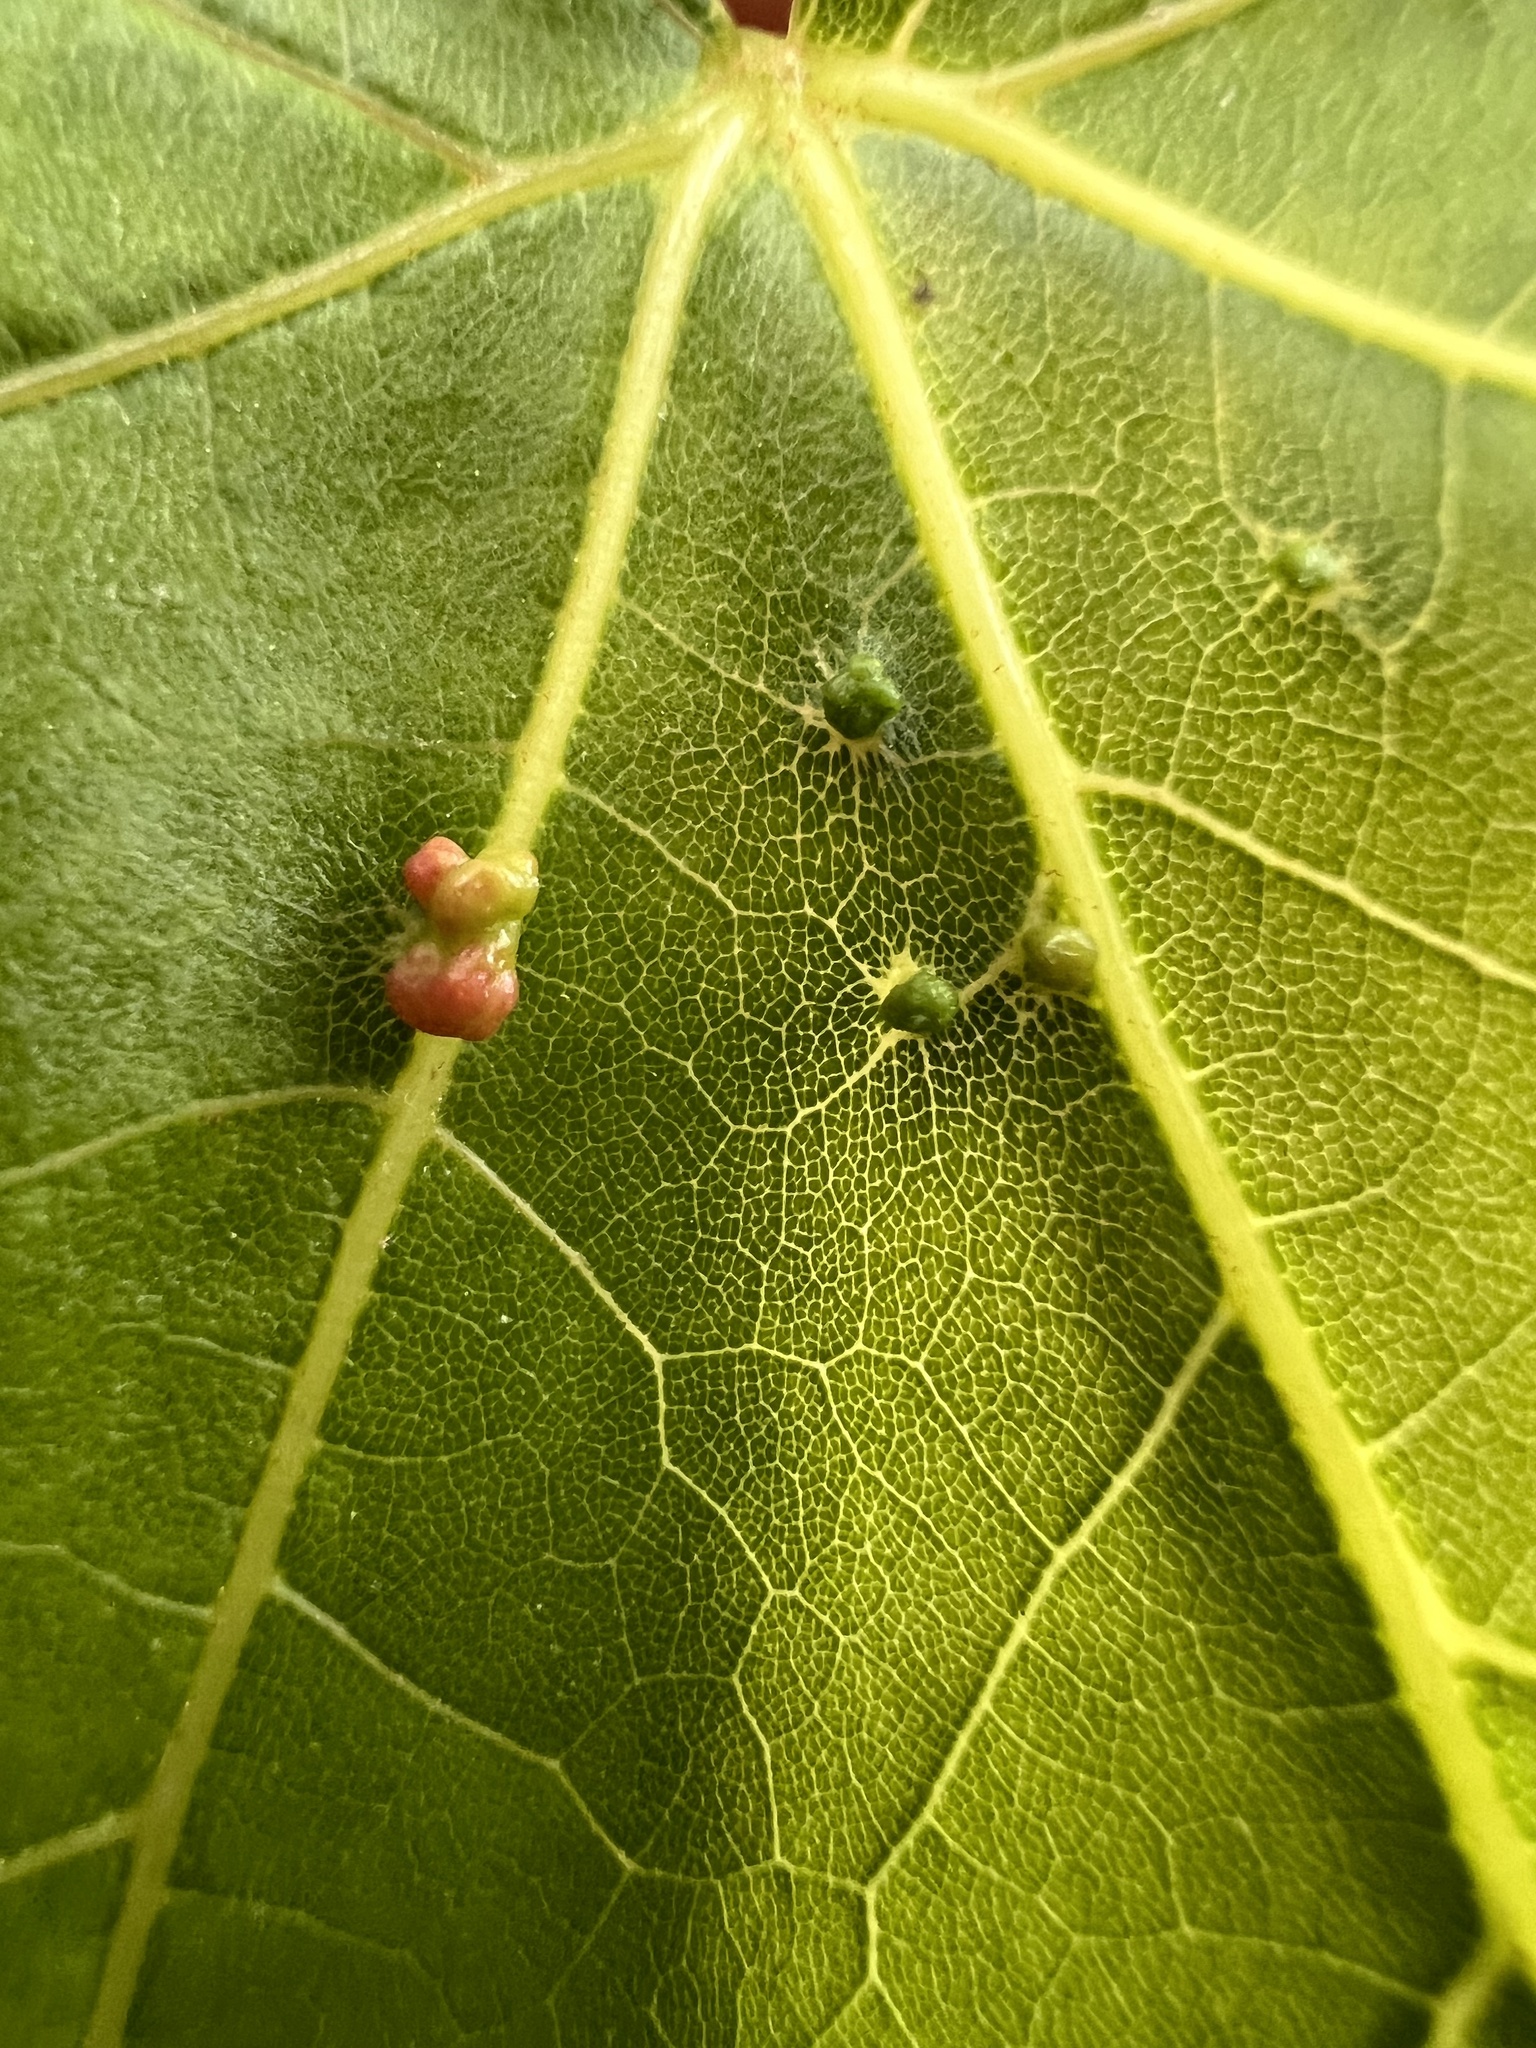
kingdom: Animalia
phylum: Arthropoda
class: Arachnida
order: Trombidiformes
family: Eriophyidae
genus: Vasates
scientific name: Vasates quadripedes
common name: Maple bladder gall mite
